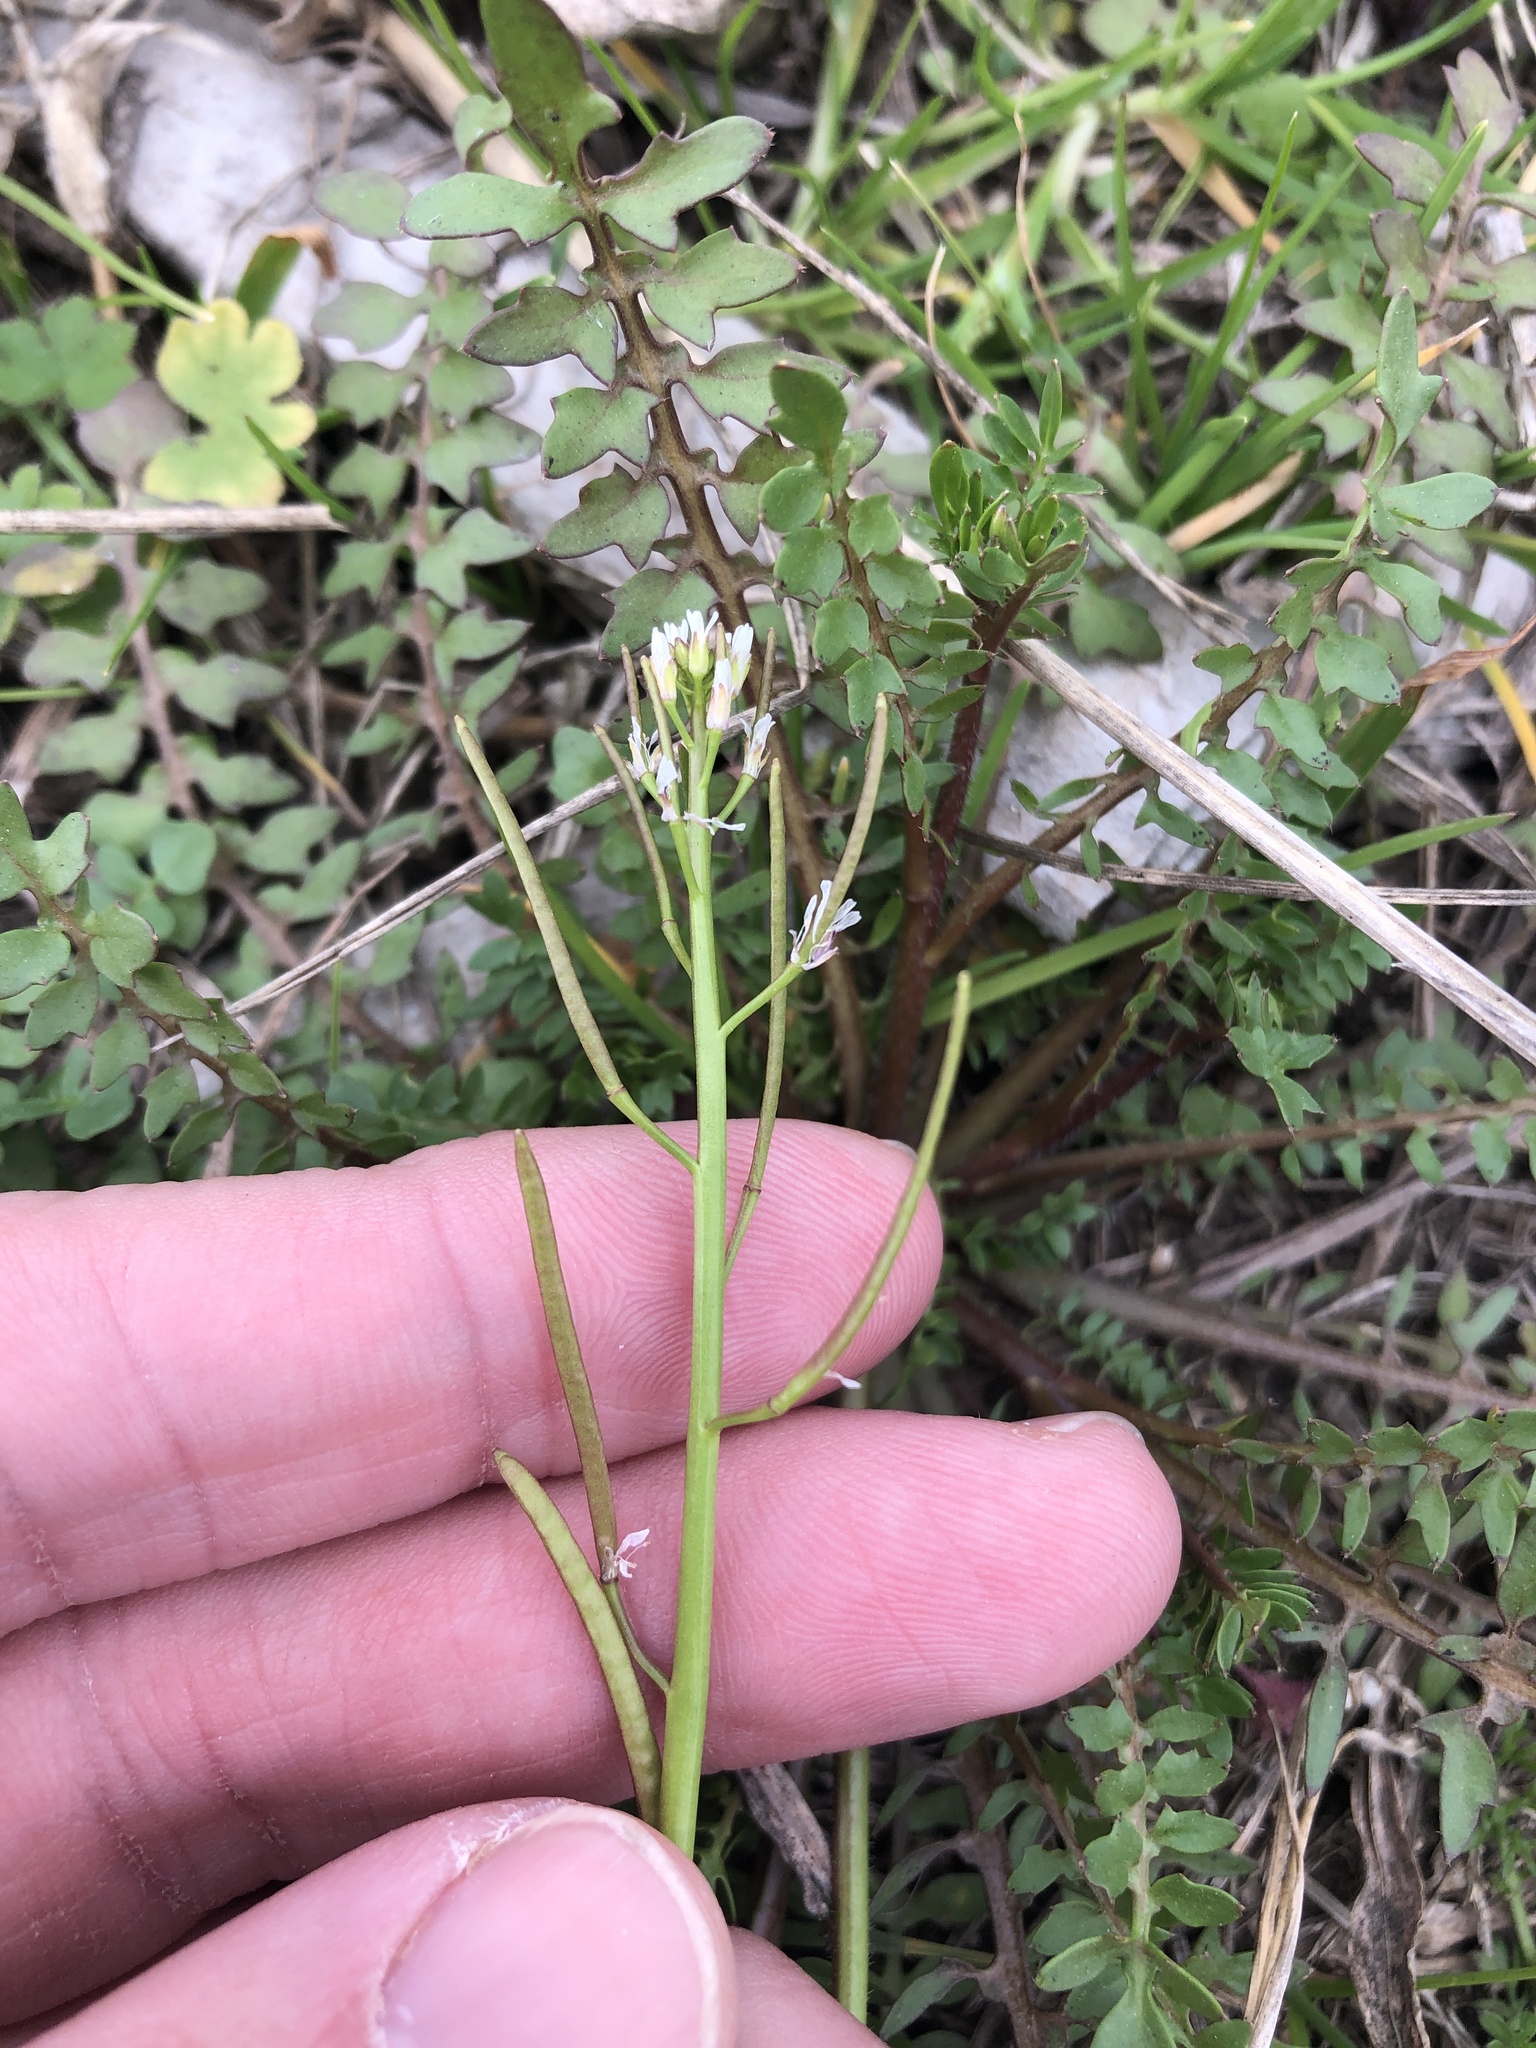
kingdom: Plantae
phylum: Tracheophyta
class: Magnoliopsida
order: Brassicales
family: Brassicaceae
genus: Cardamine
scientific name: Cardamine hirsuta
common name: Hairy bittercress
